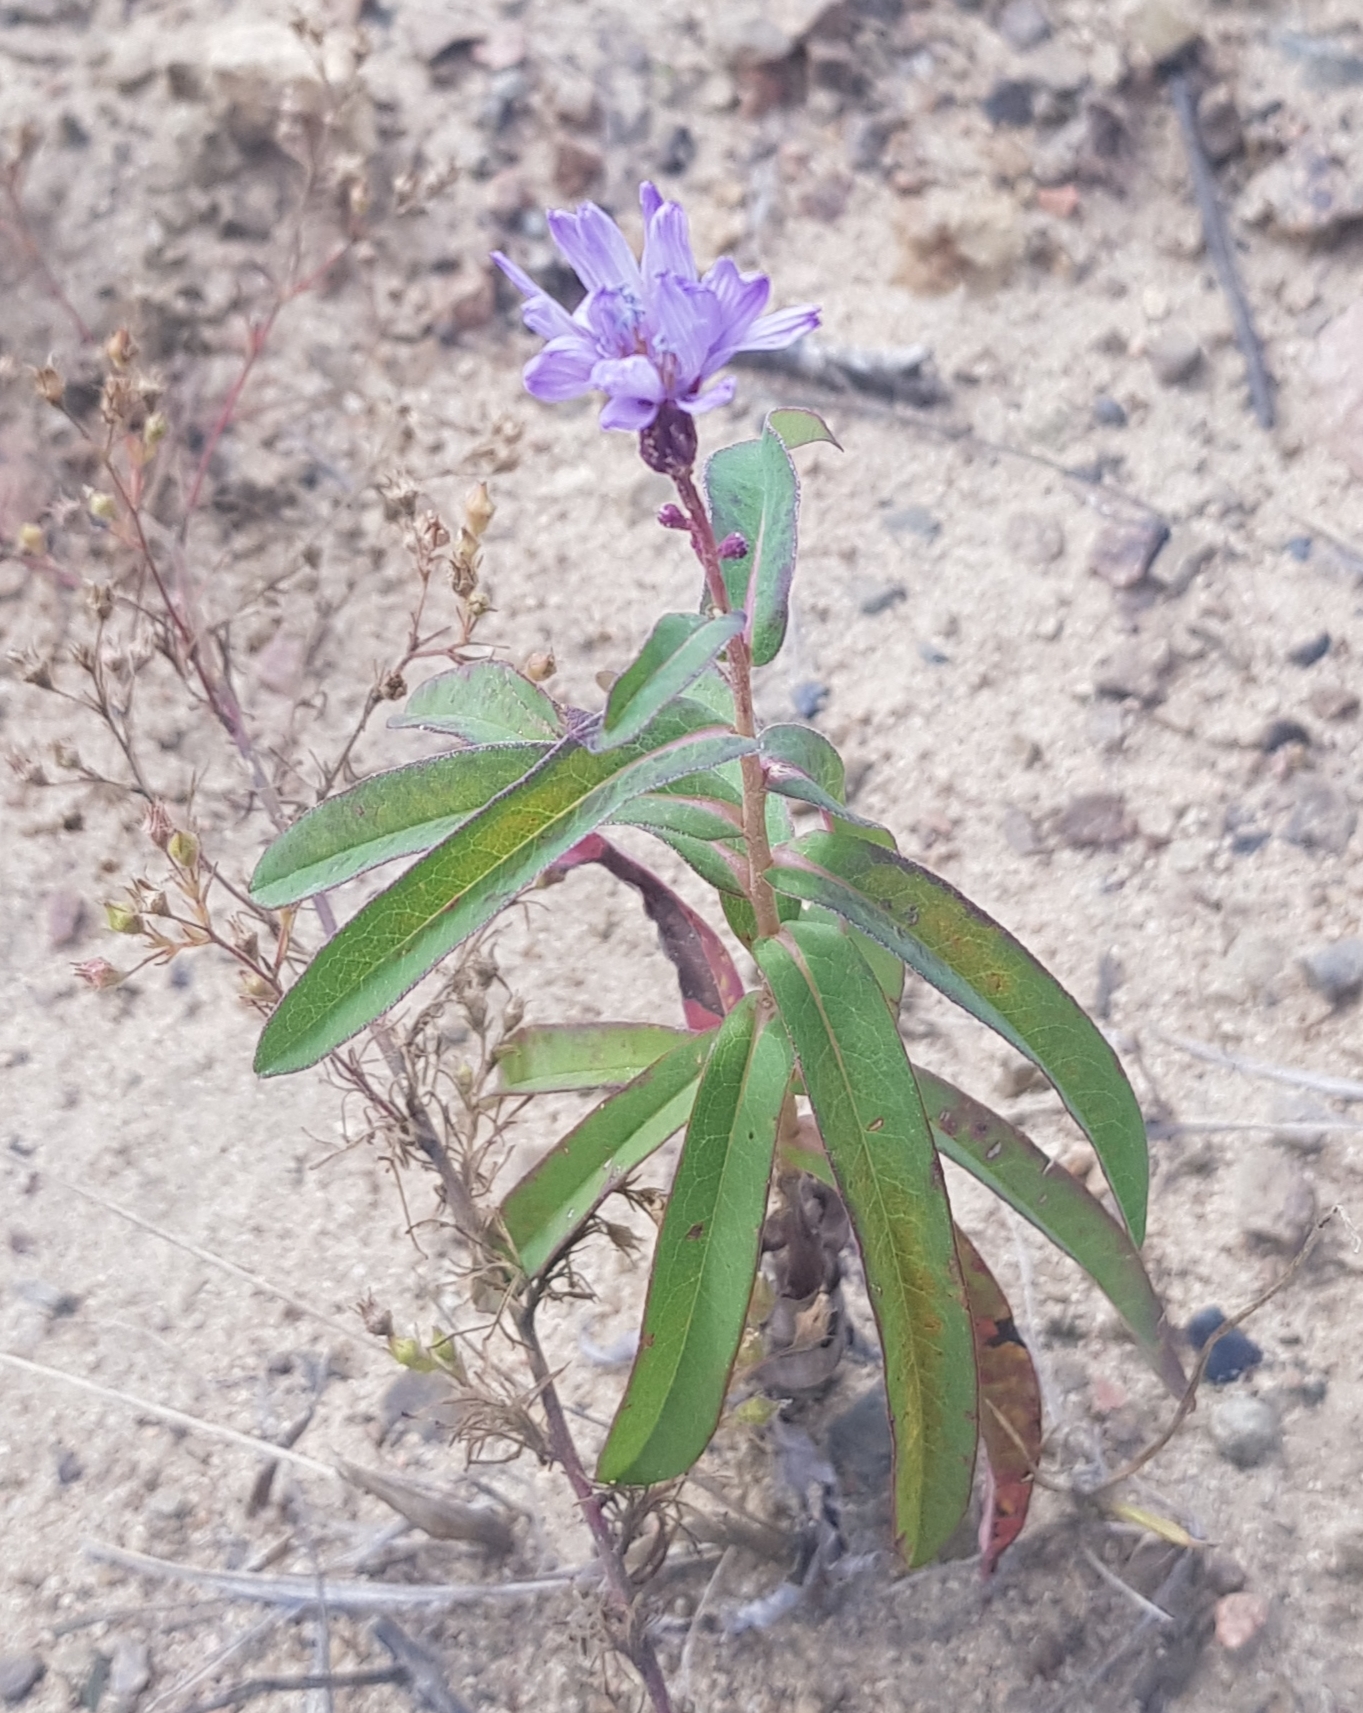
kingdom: Plantae
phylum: Tracheophyta
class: Magnoliopsida
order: Asterales
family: Asteraceae
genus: Lactuca
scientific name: Lactuca sibirica
